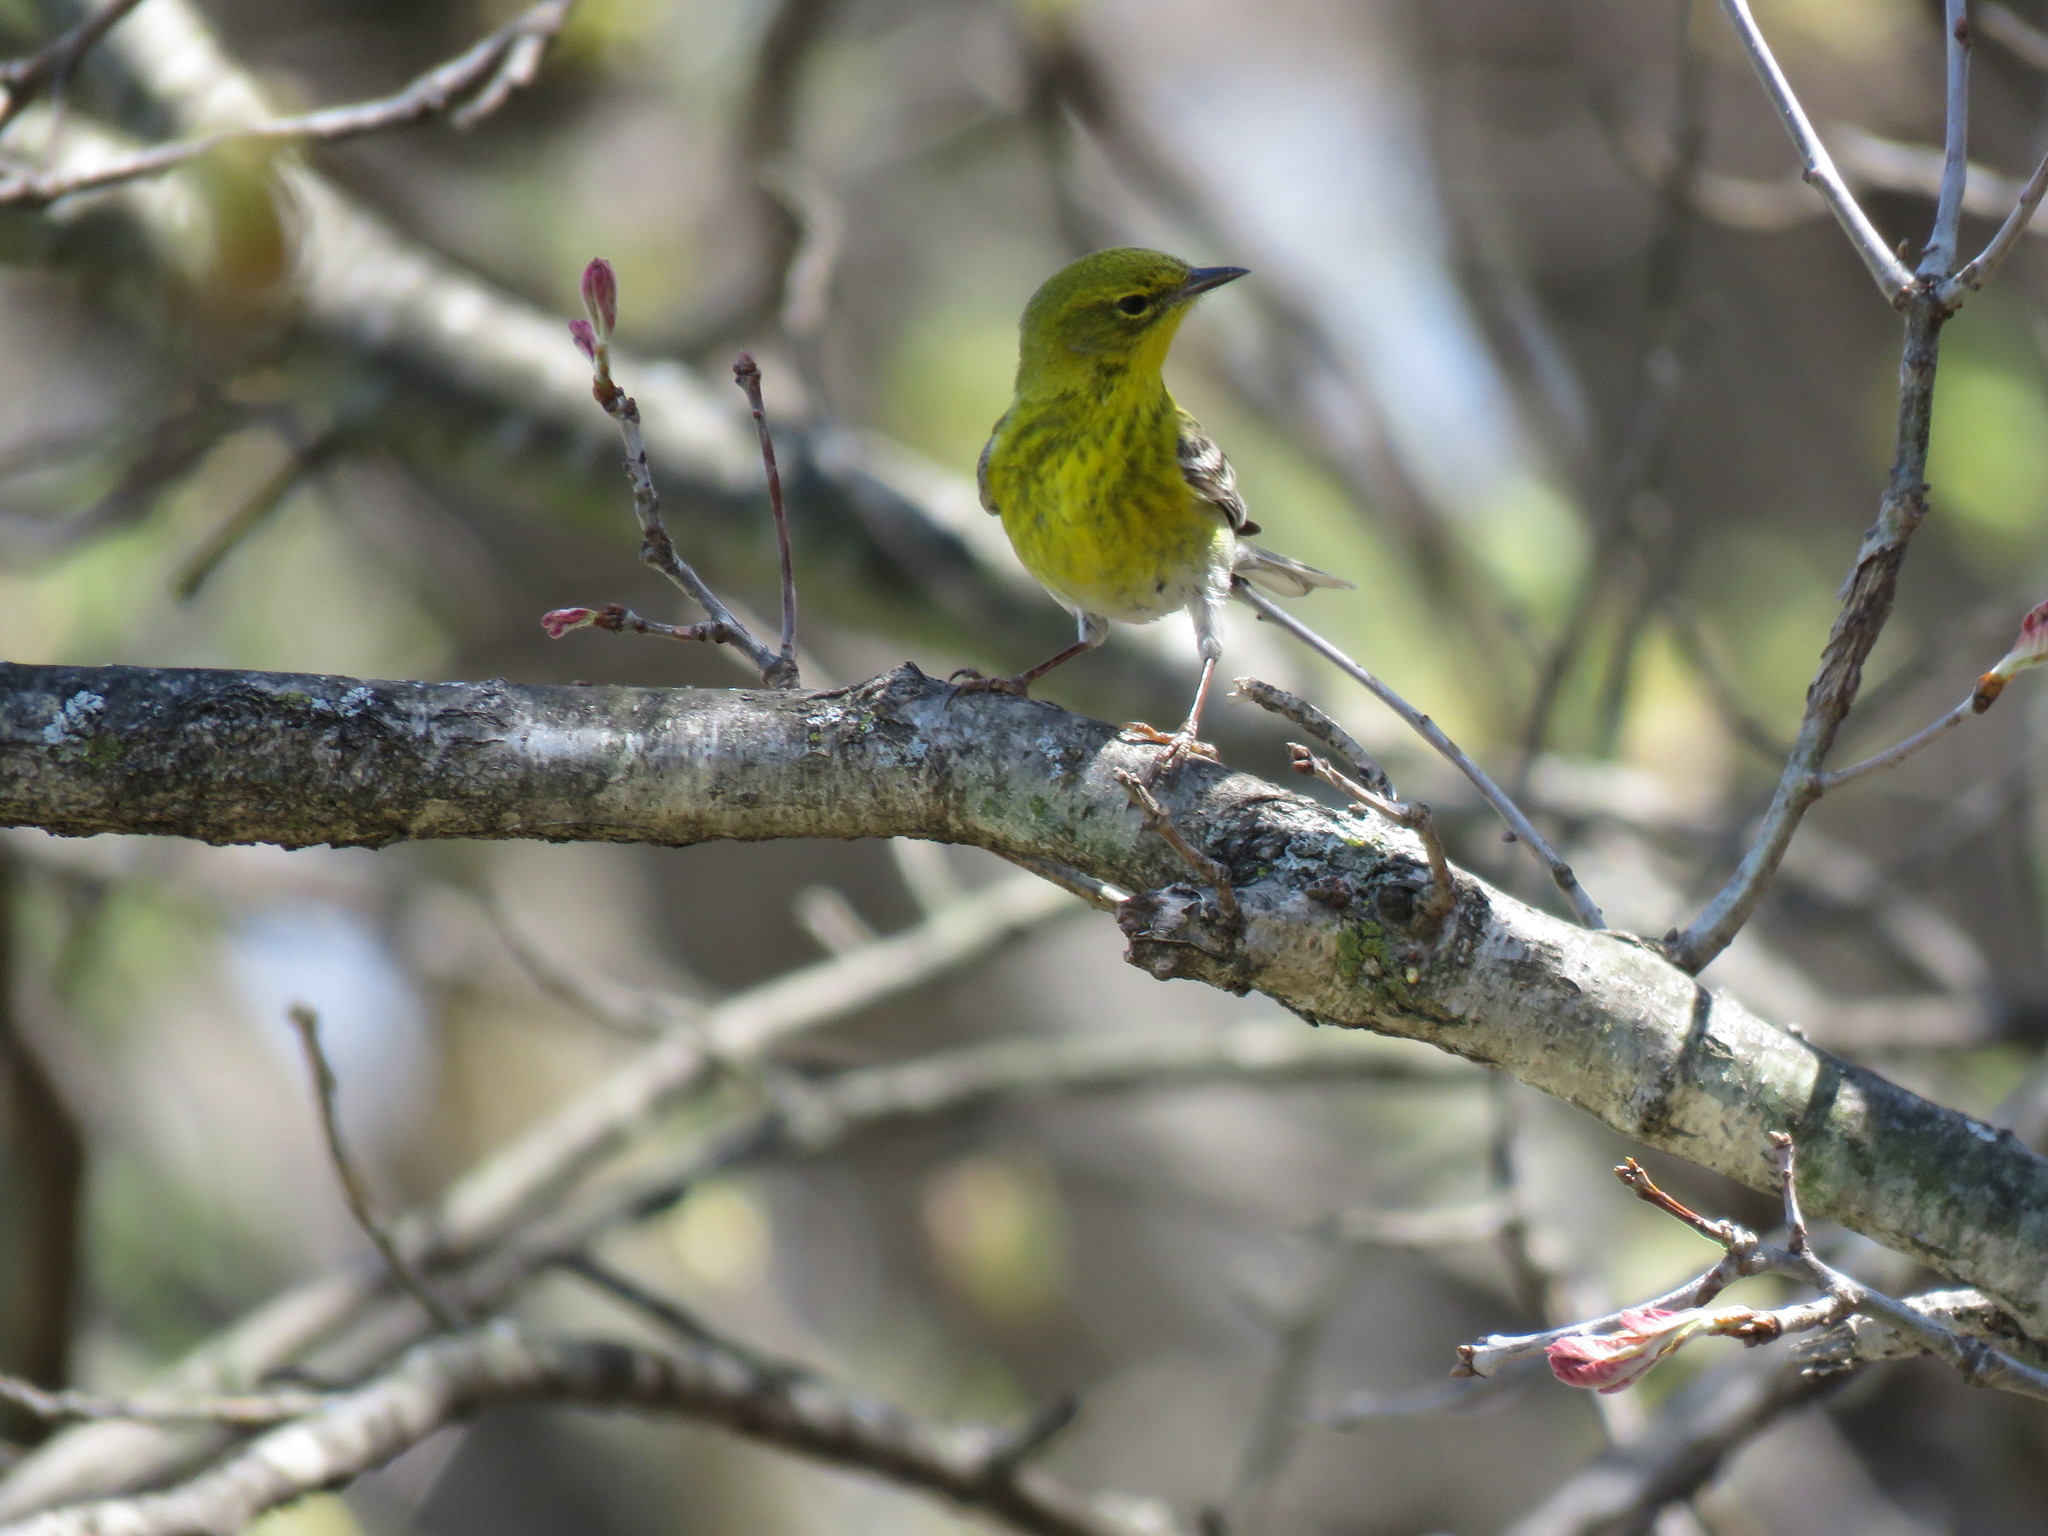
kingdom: Animalia
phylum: Chordata
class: Aves
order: Passeriformes
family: Parulidae
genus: Setophaga
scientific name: Setophaga pinus
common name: Pine warbler
